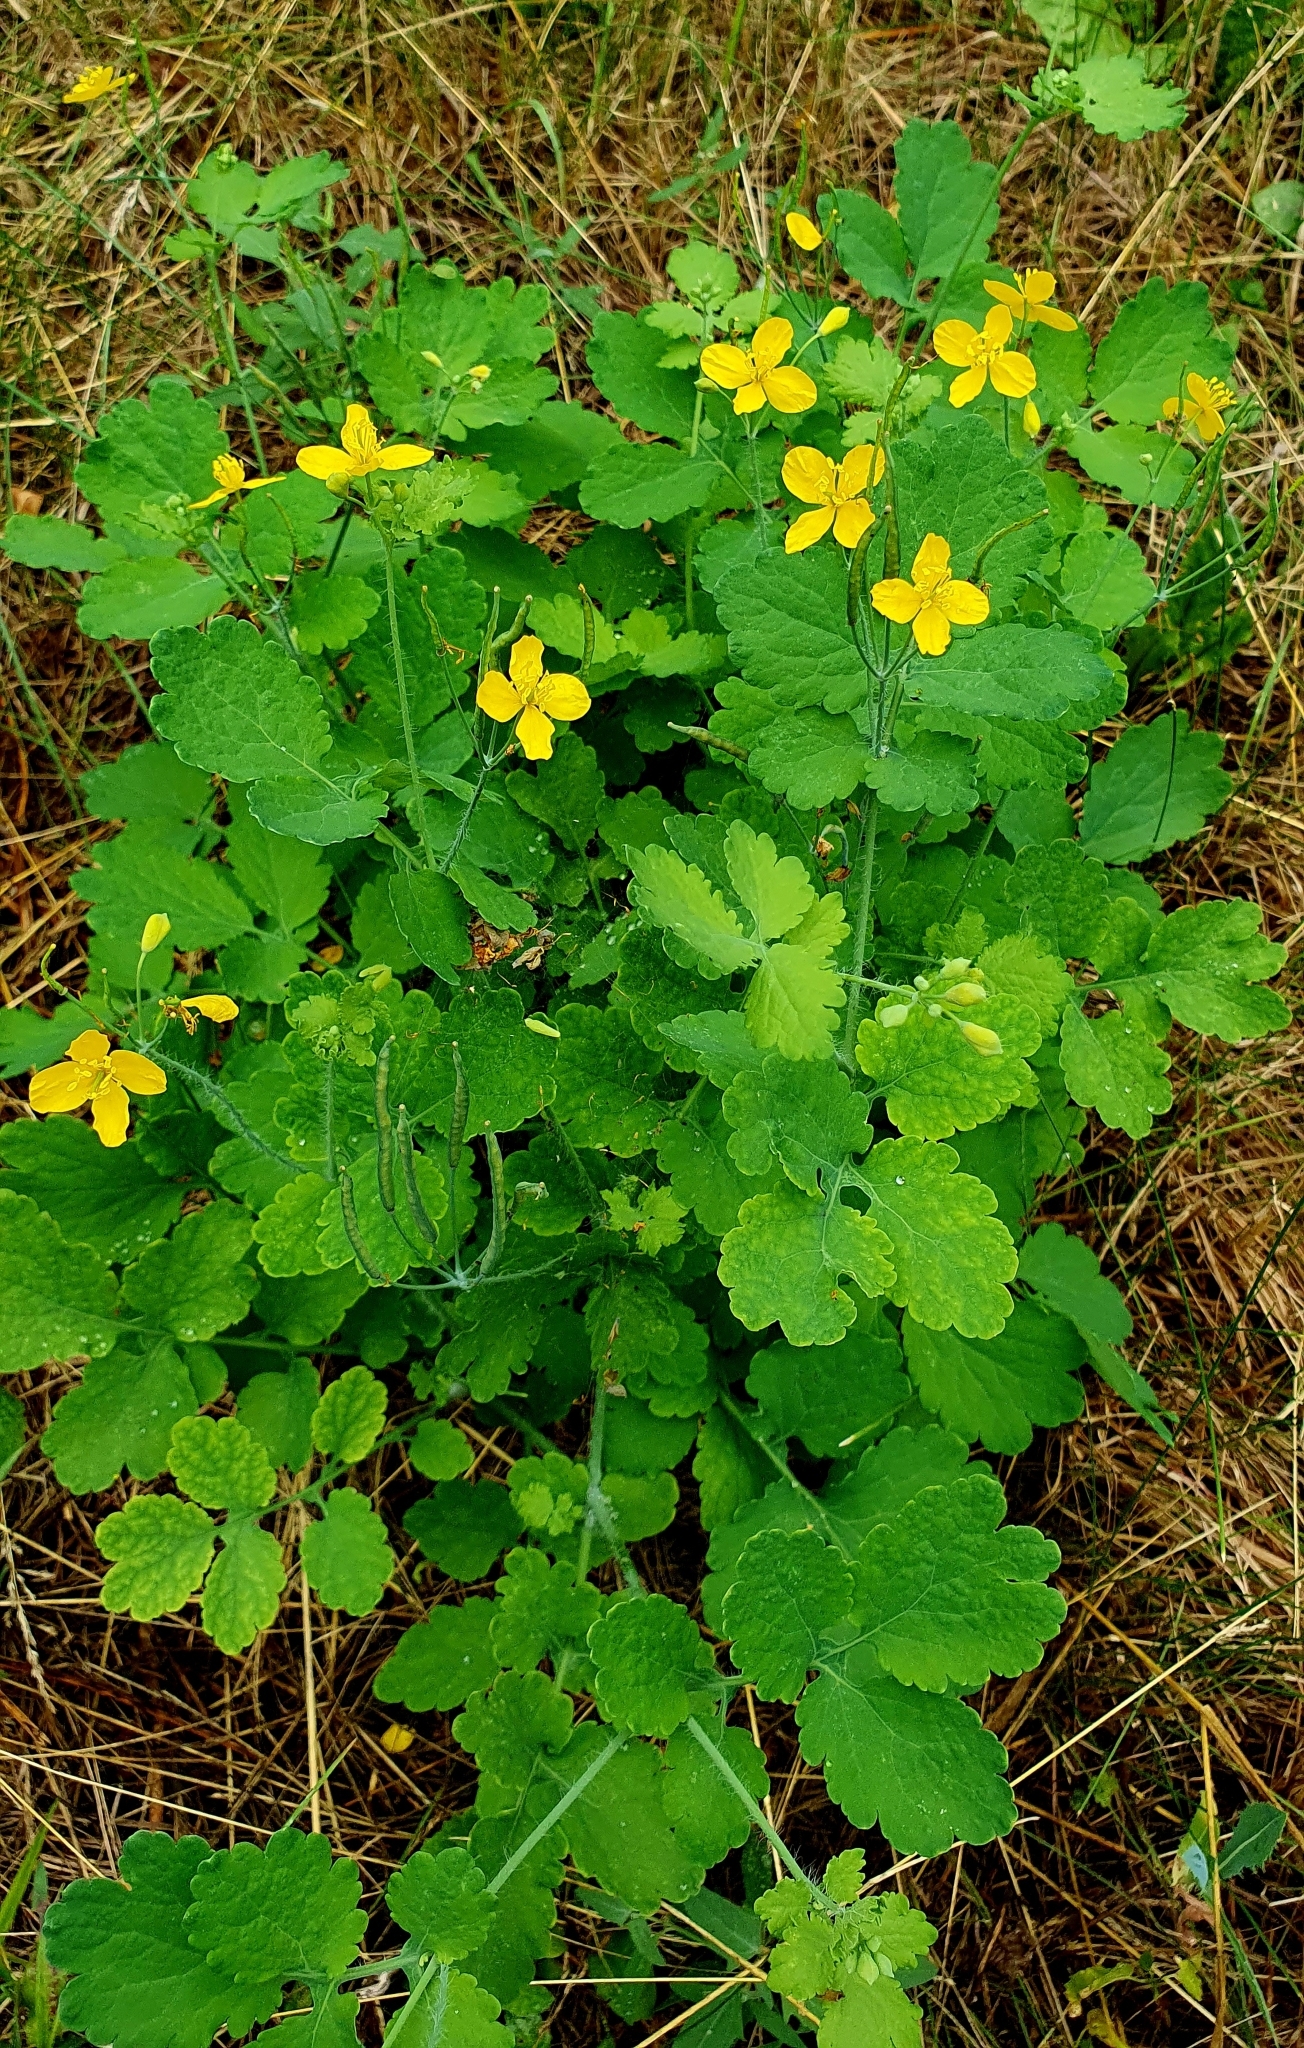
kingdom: Plantae
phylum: Tracheophyta
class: Magnoliopsida
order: Ranunculales
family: Papaveraceae
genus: Chelidonium
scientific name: Chelidonium majus
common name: Greater celandine
